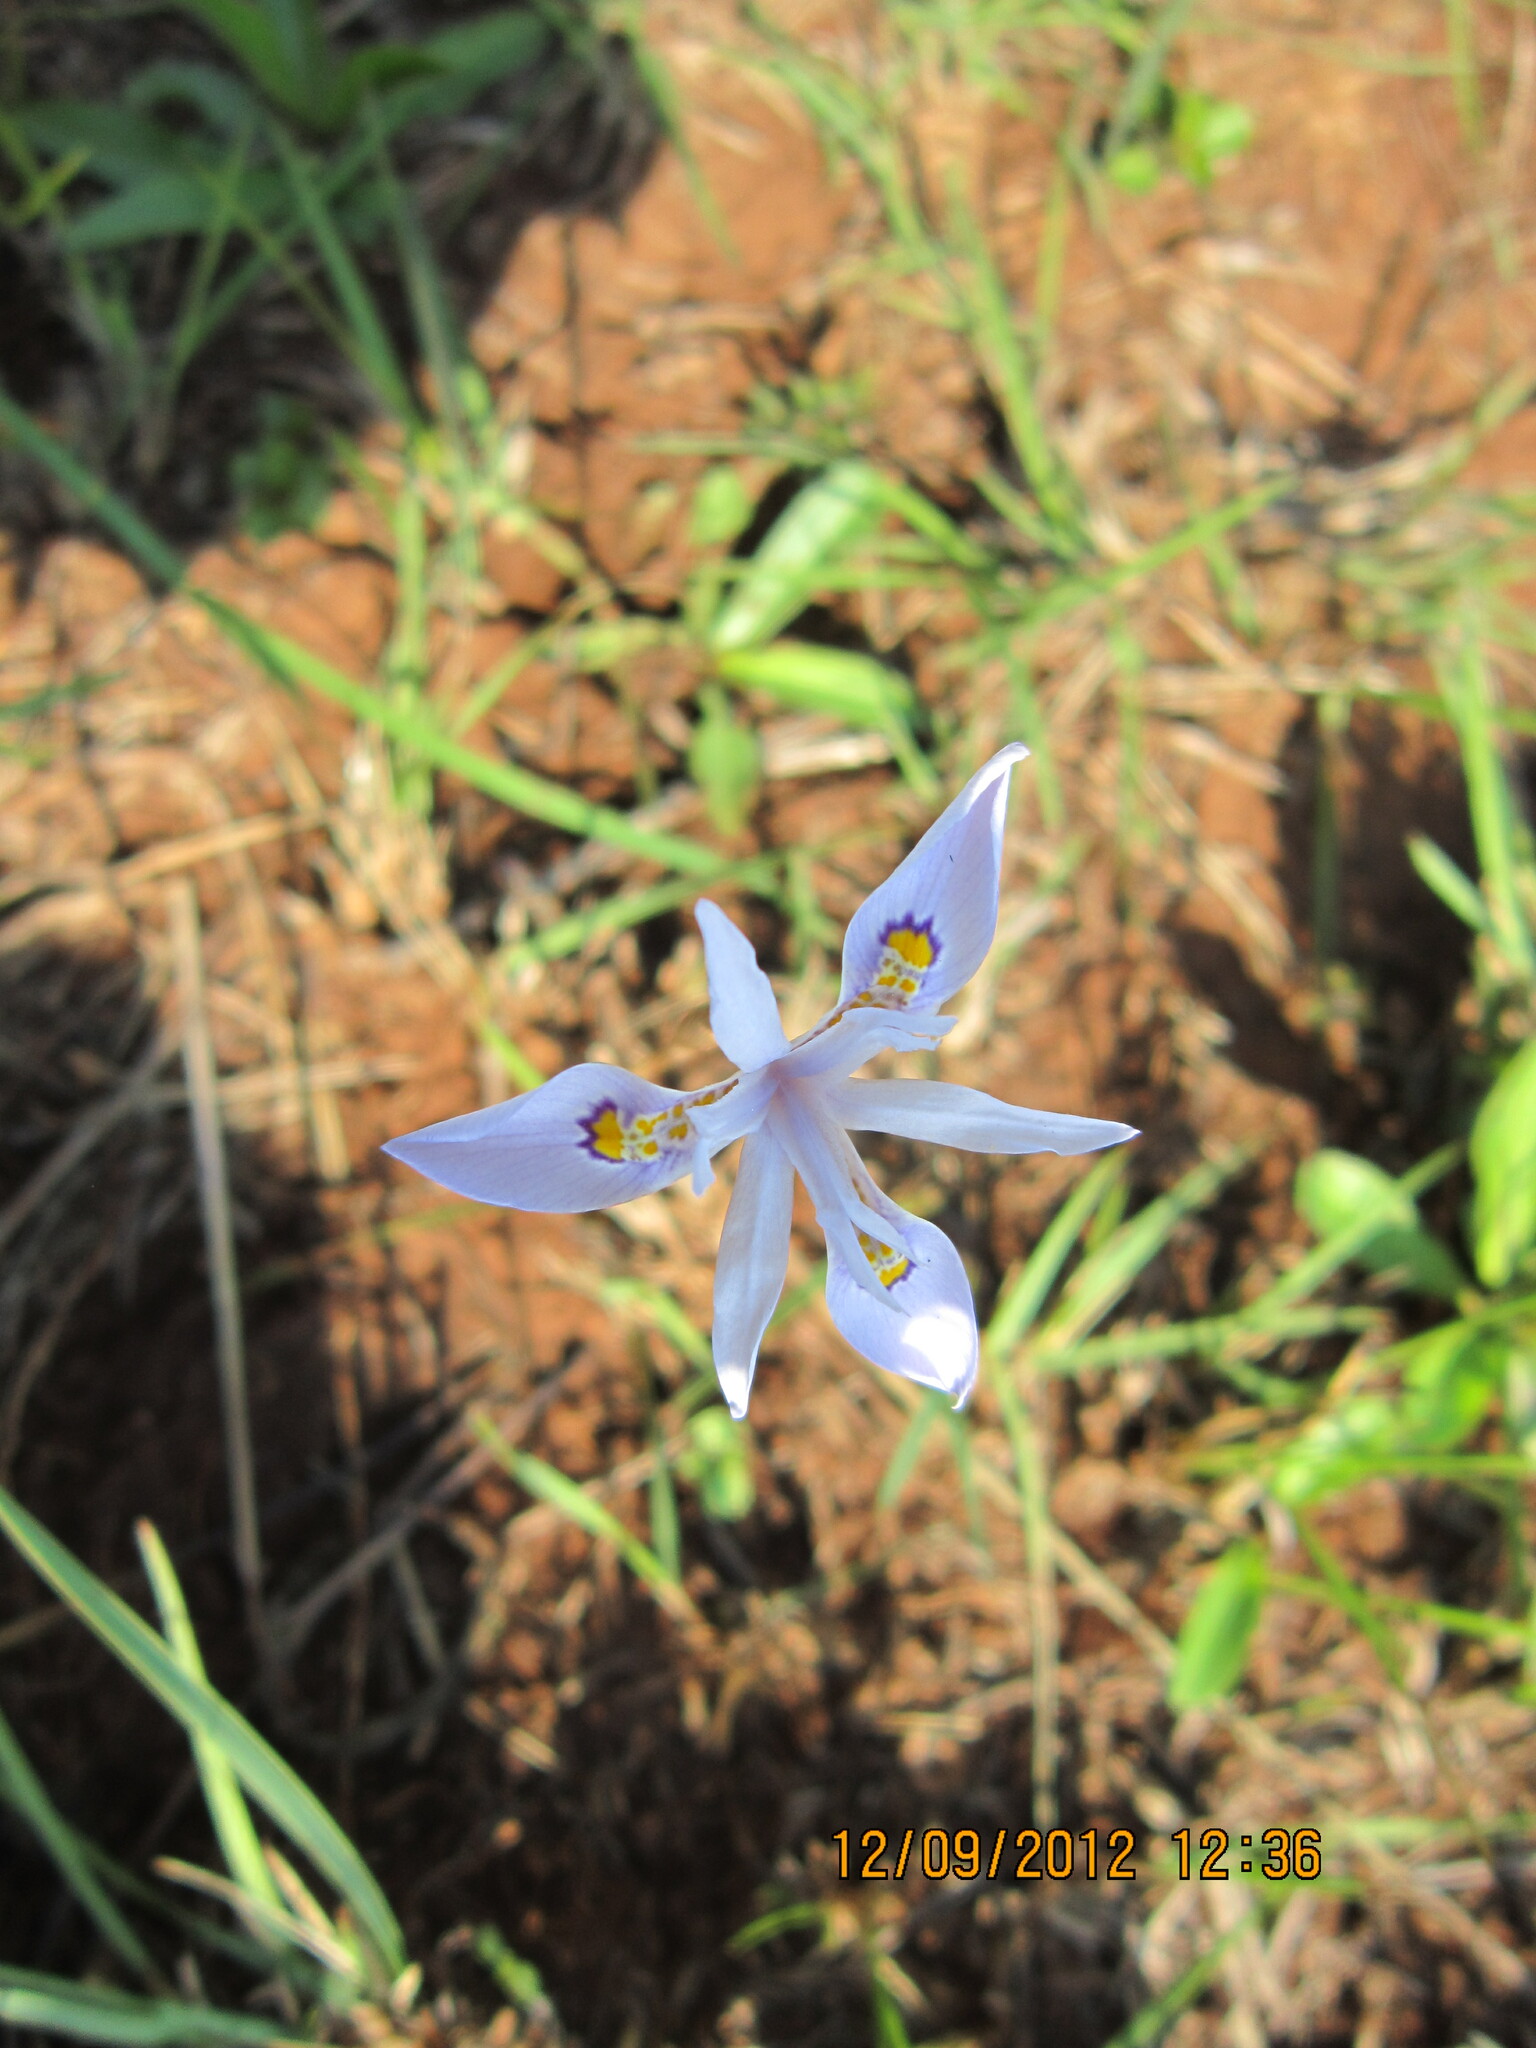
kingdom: Plantae
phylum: Tracheophyta
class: Liliopsida
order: Asparagales
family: Iridaceae
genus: Moraea
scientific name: Moraea elliotii
